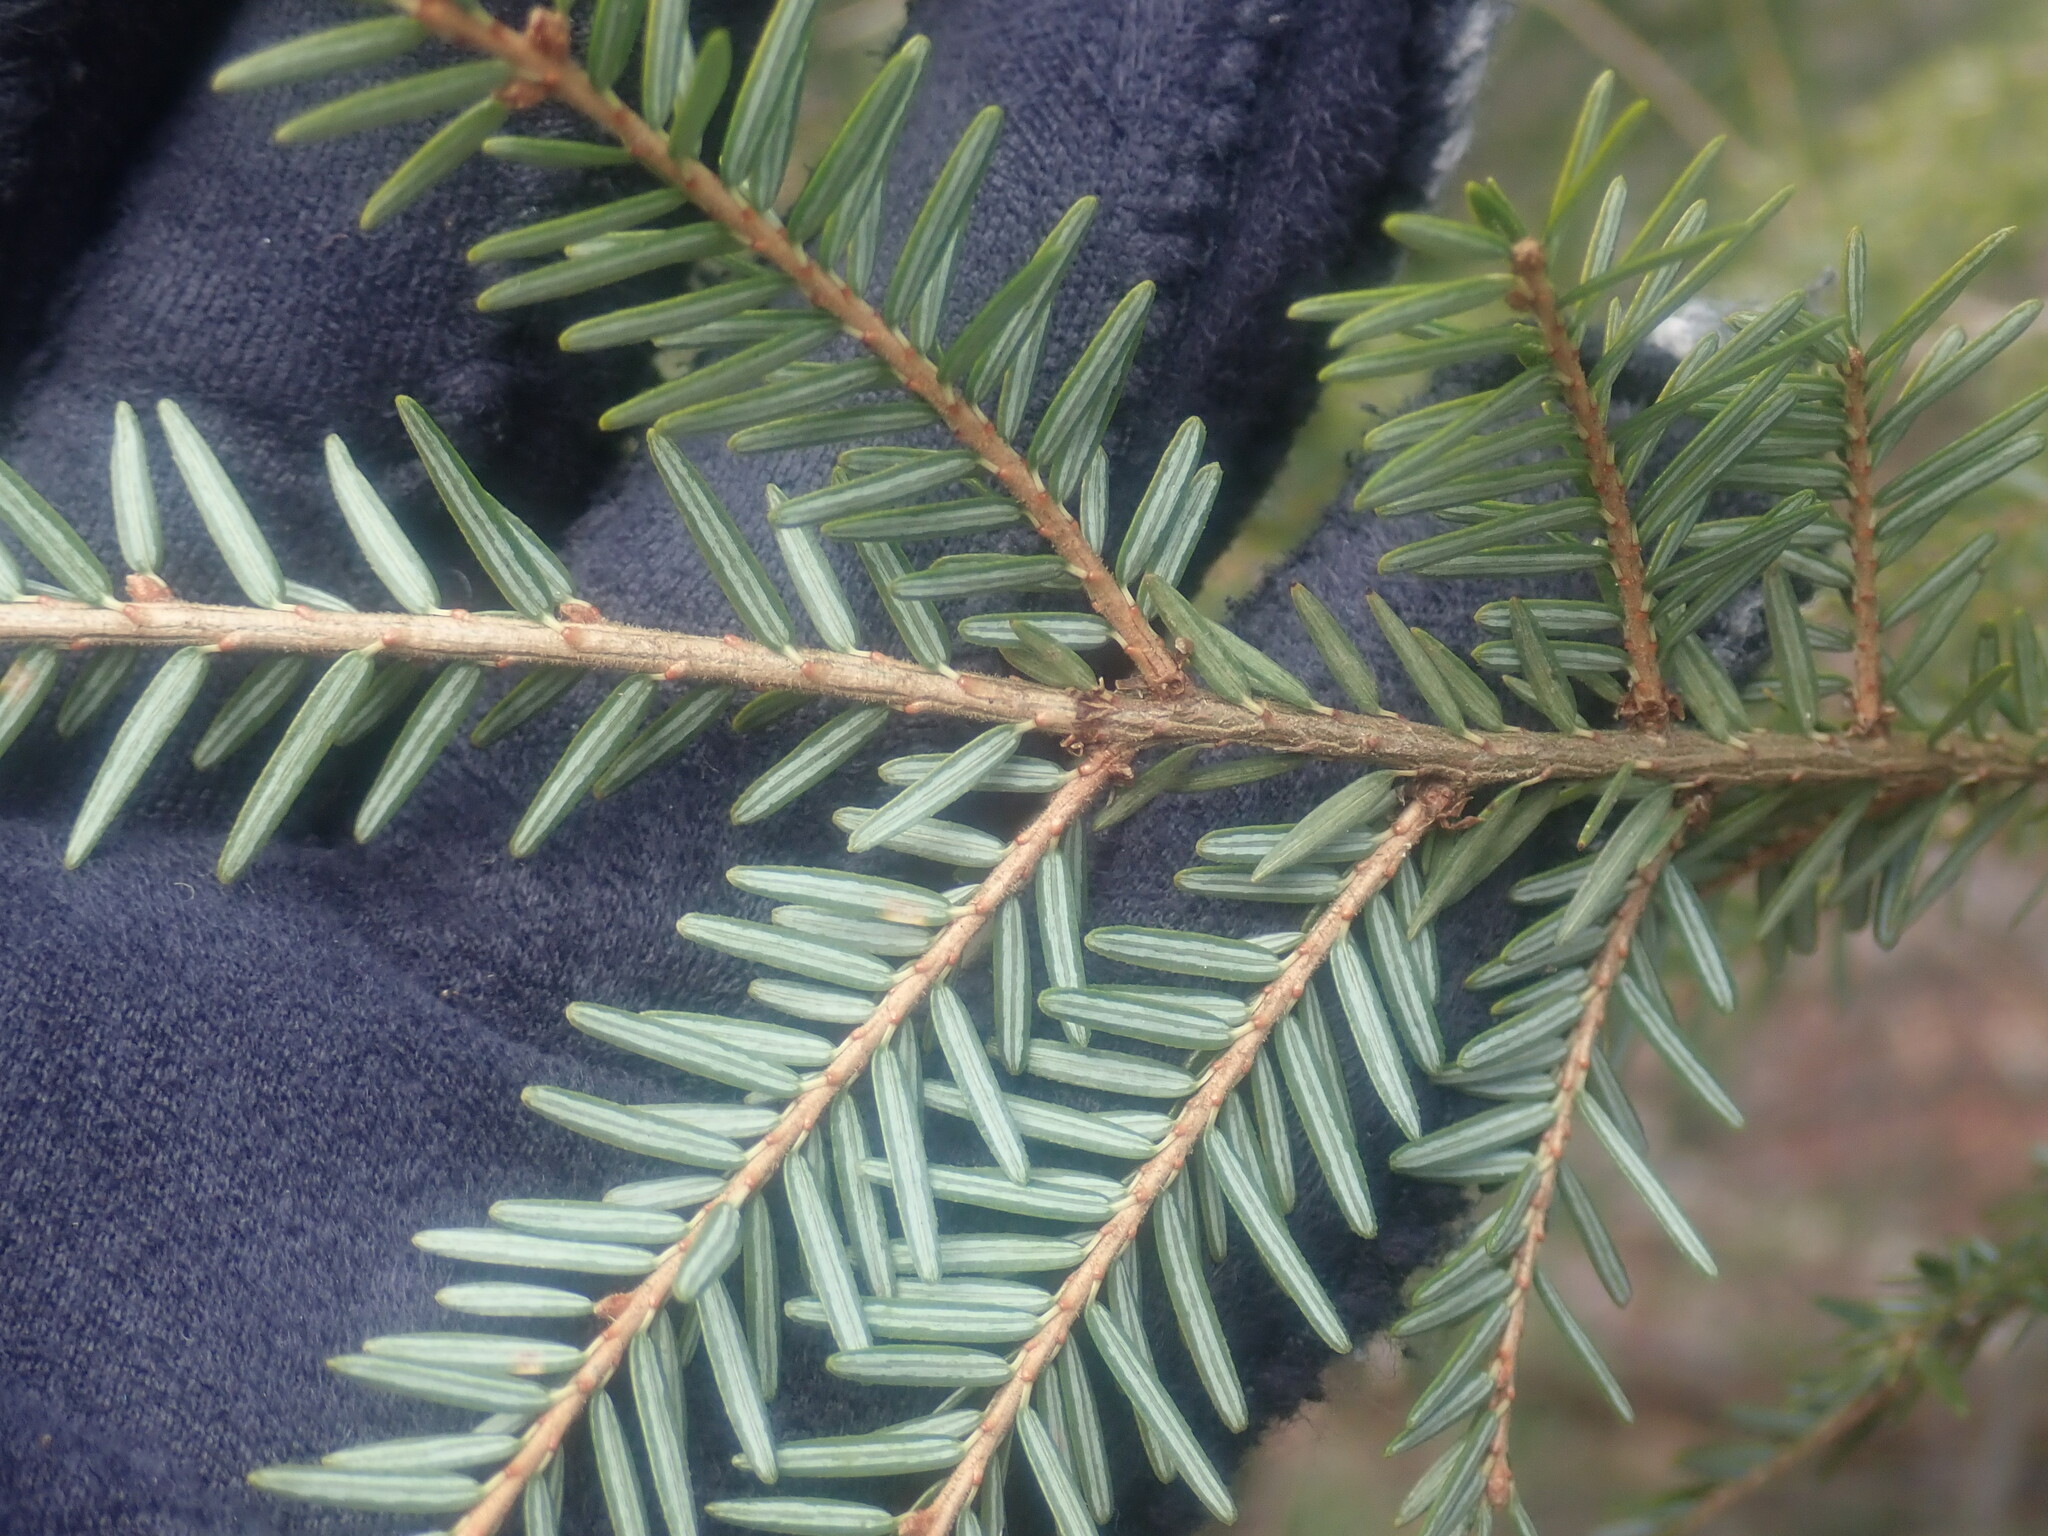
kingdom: Plantae
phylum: Tracheophyta
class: Pinopsida
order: Pinales
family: Pinaceae
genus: Tsuga
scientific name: Tsuga canadensis
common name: Eastern hemlock
